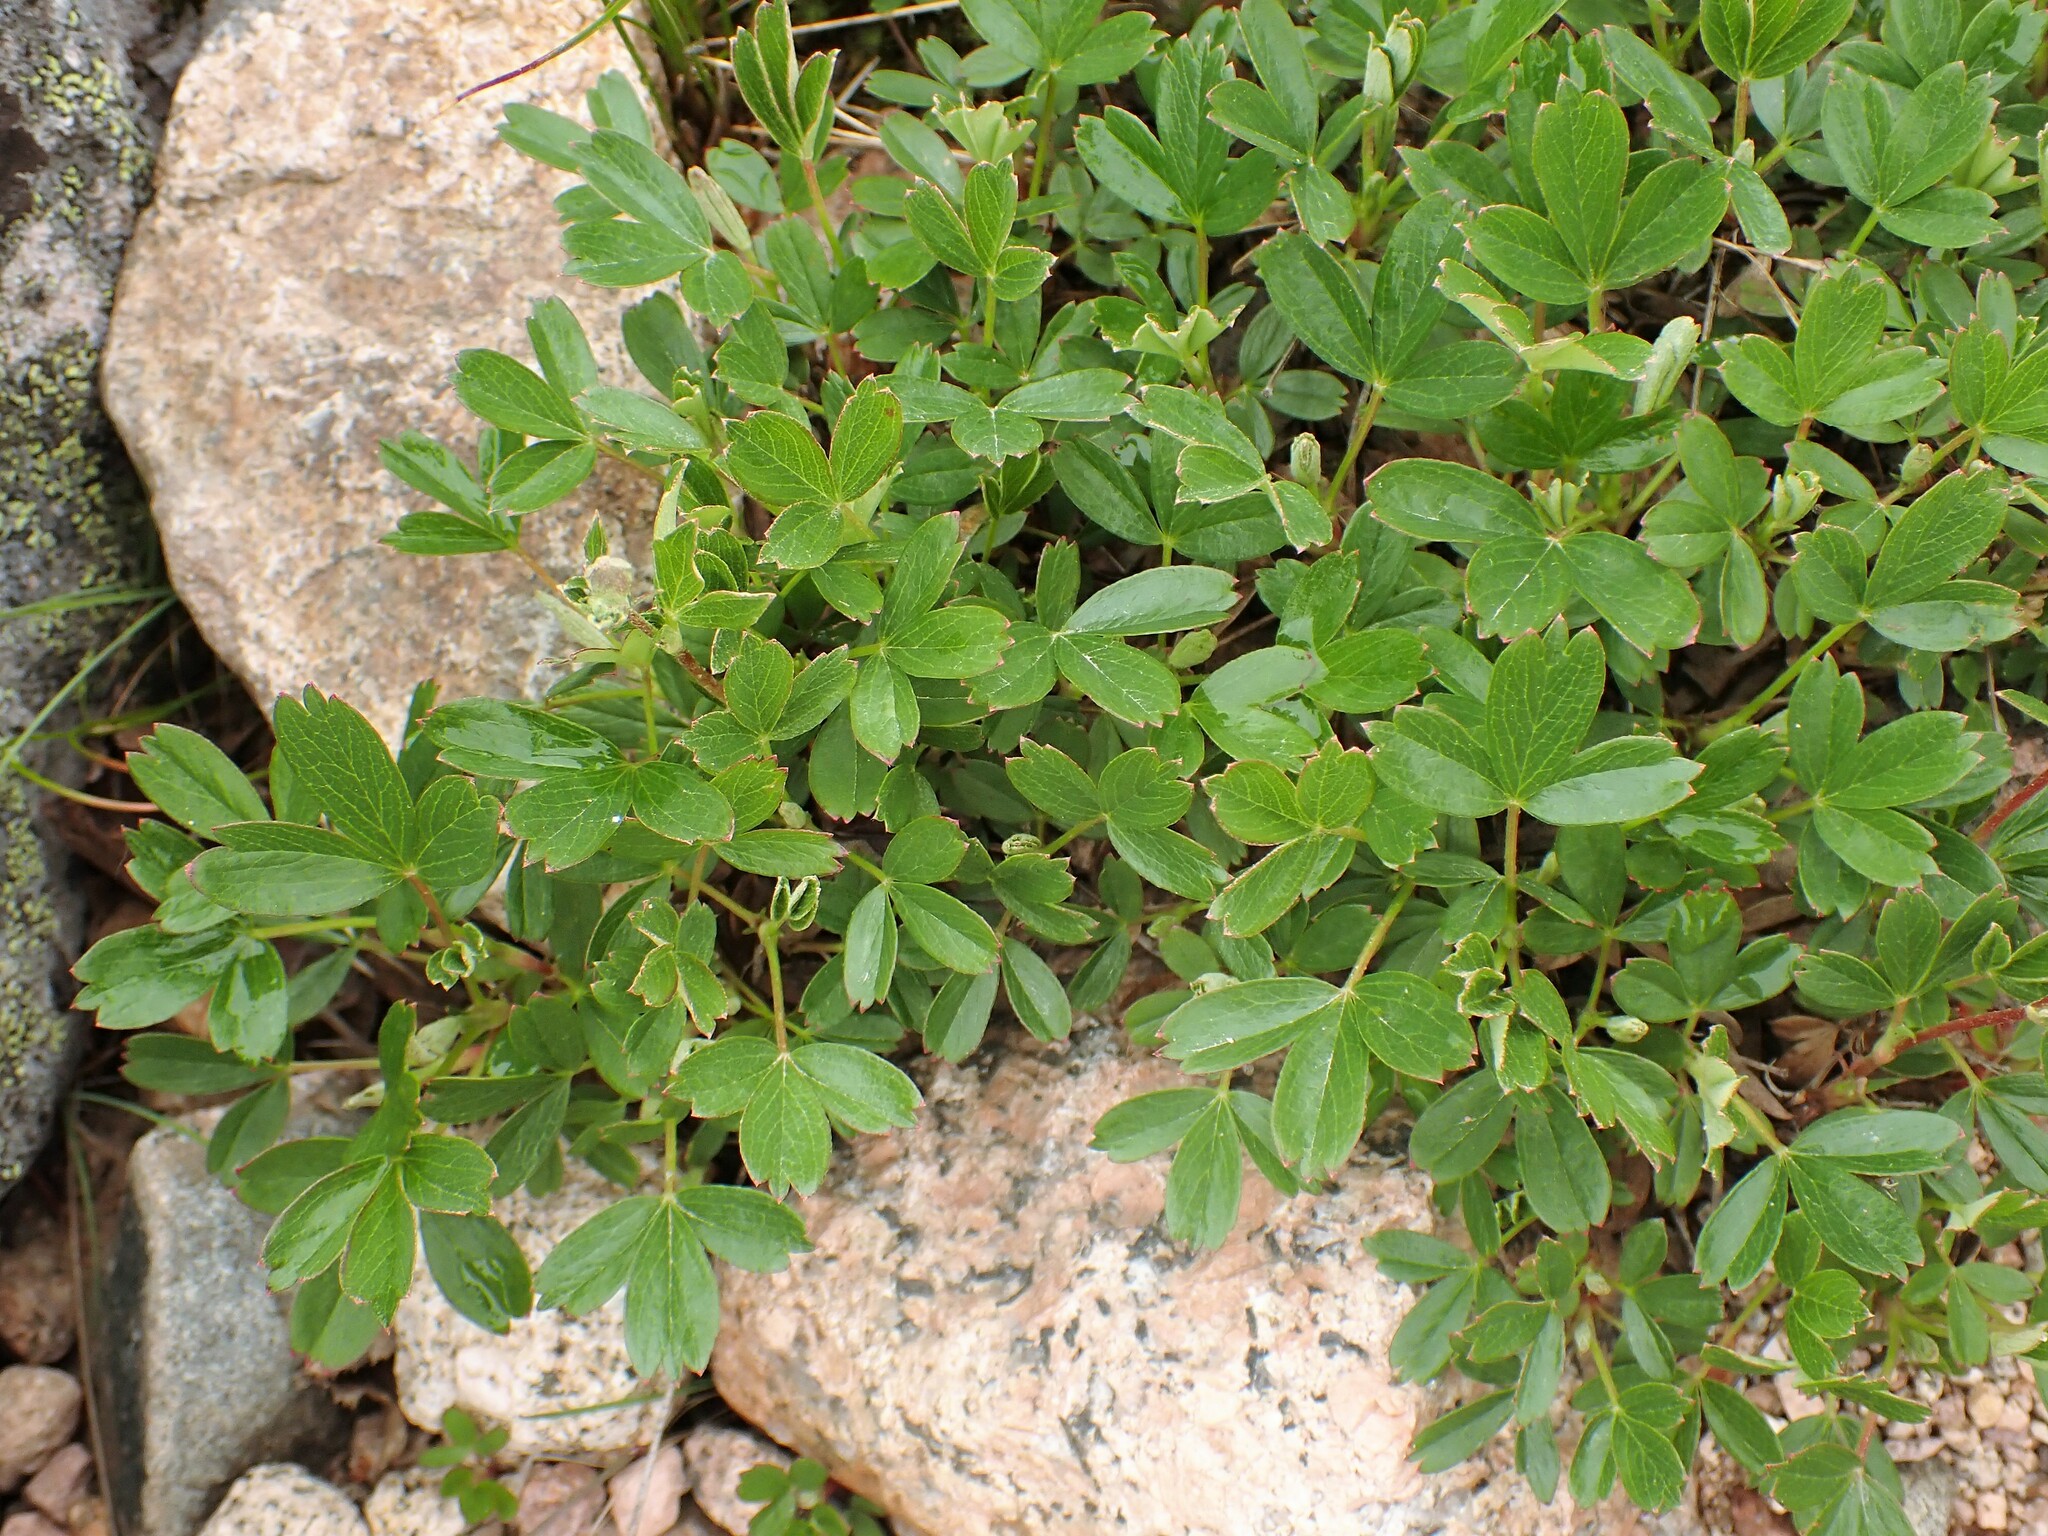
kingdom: Plantae
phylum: Tracheophyta
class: Magnoliopsida
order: Rosales
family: Rosaceae
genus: Sibbaldia
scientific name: Sibbaldia tridentata
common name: Three-toothed cinquefoil
